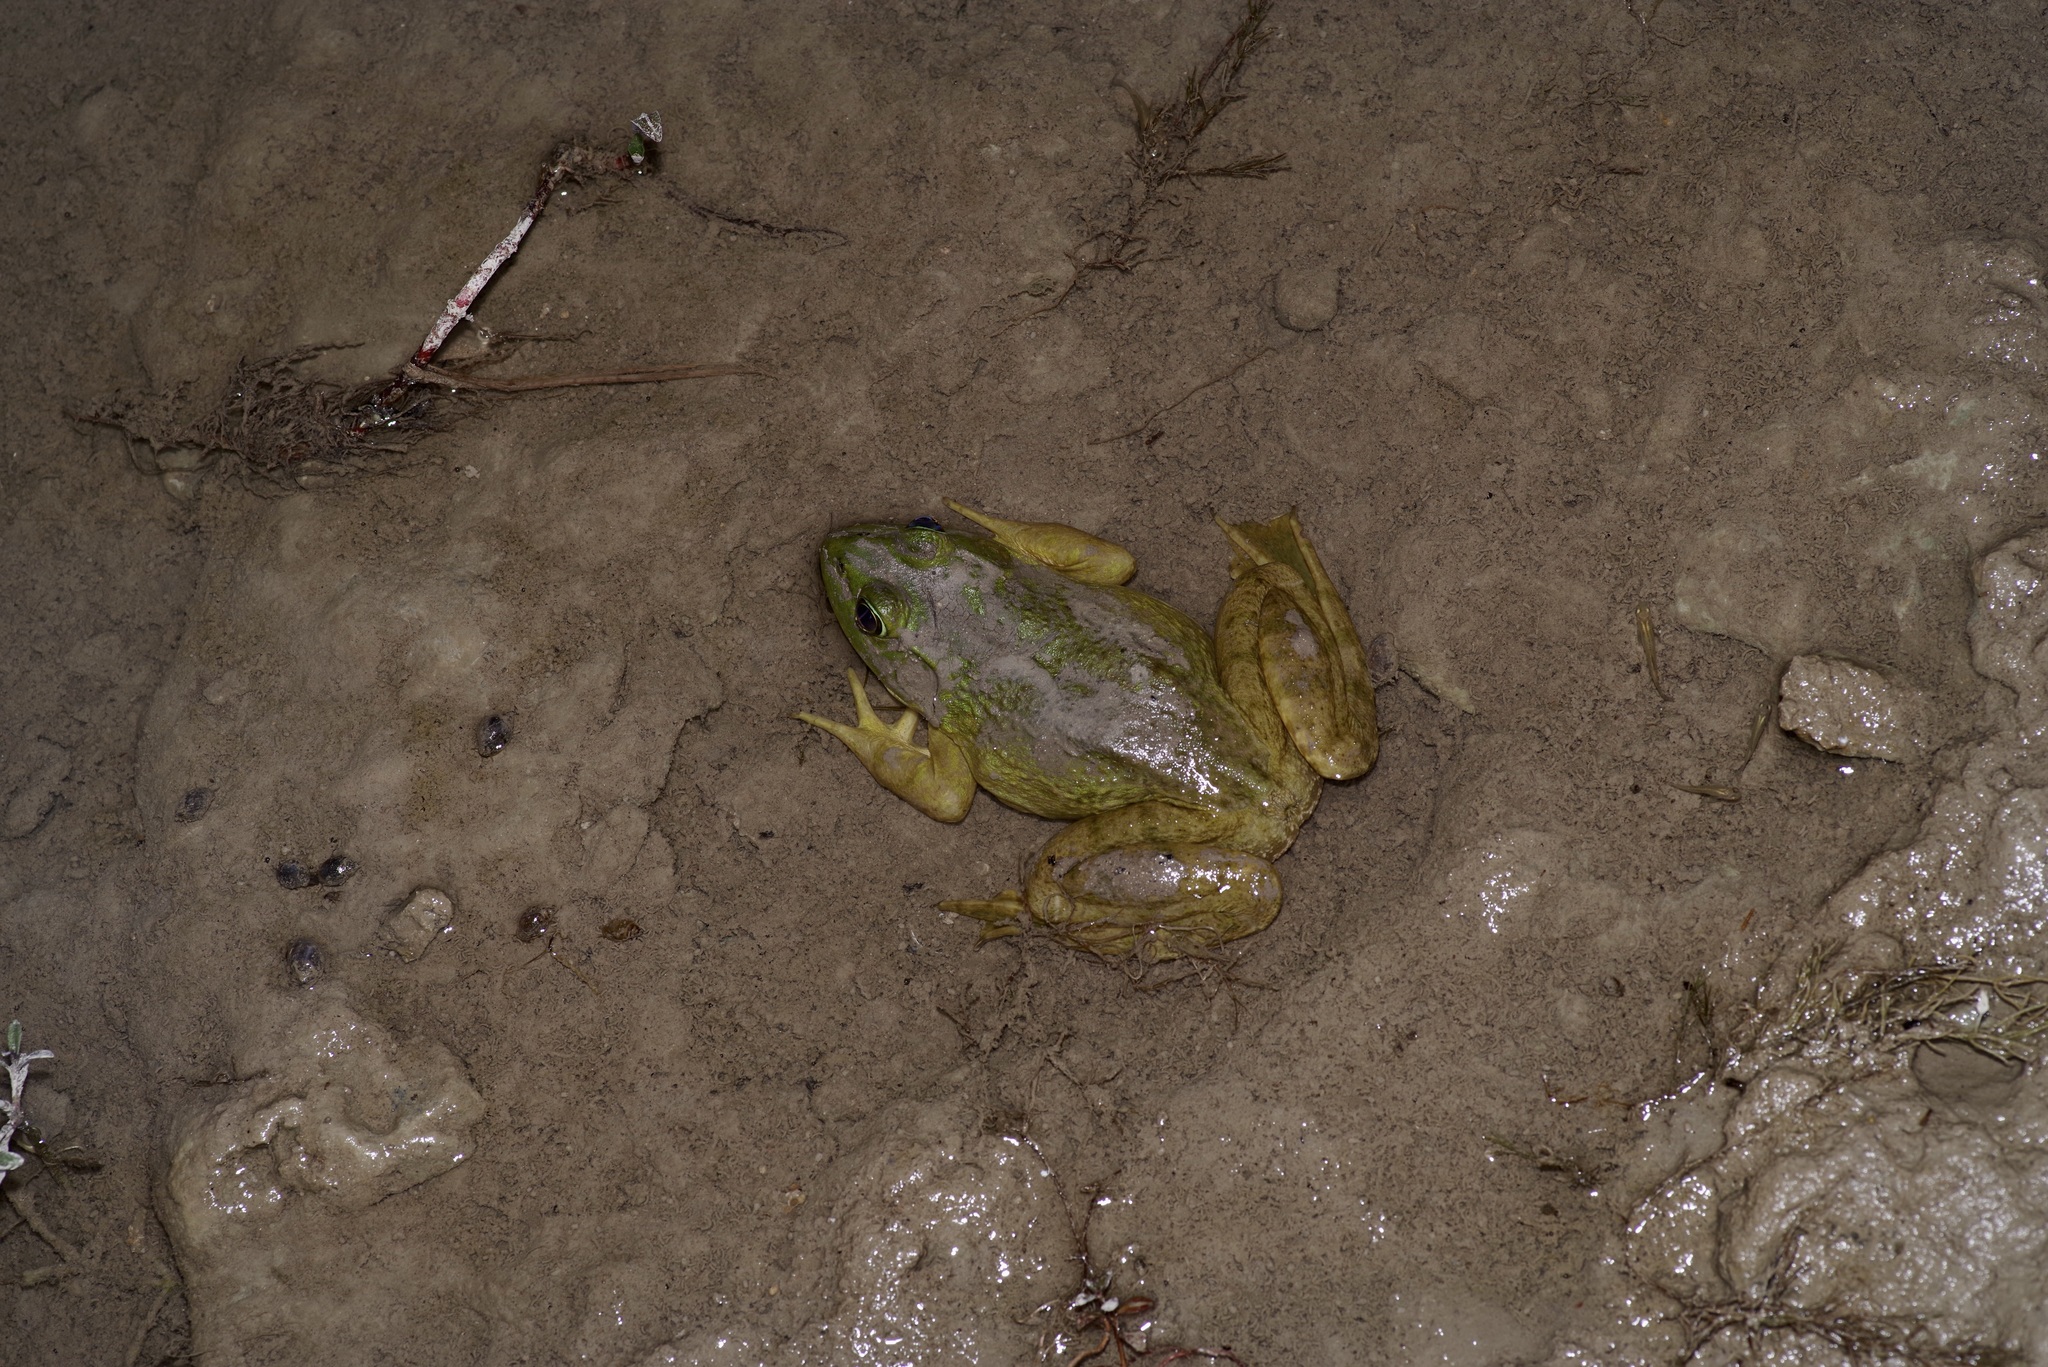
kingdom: Animalia
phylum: Chordata
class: Amphibia
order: Anura
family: Ranidae
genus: Lithobates
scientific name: Lithobates catesbeianus
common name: American bullfrog
